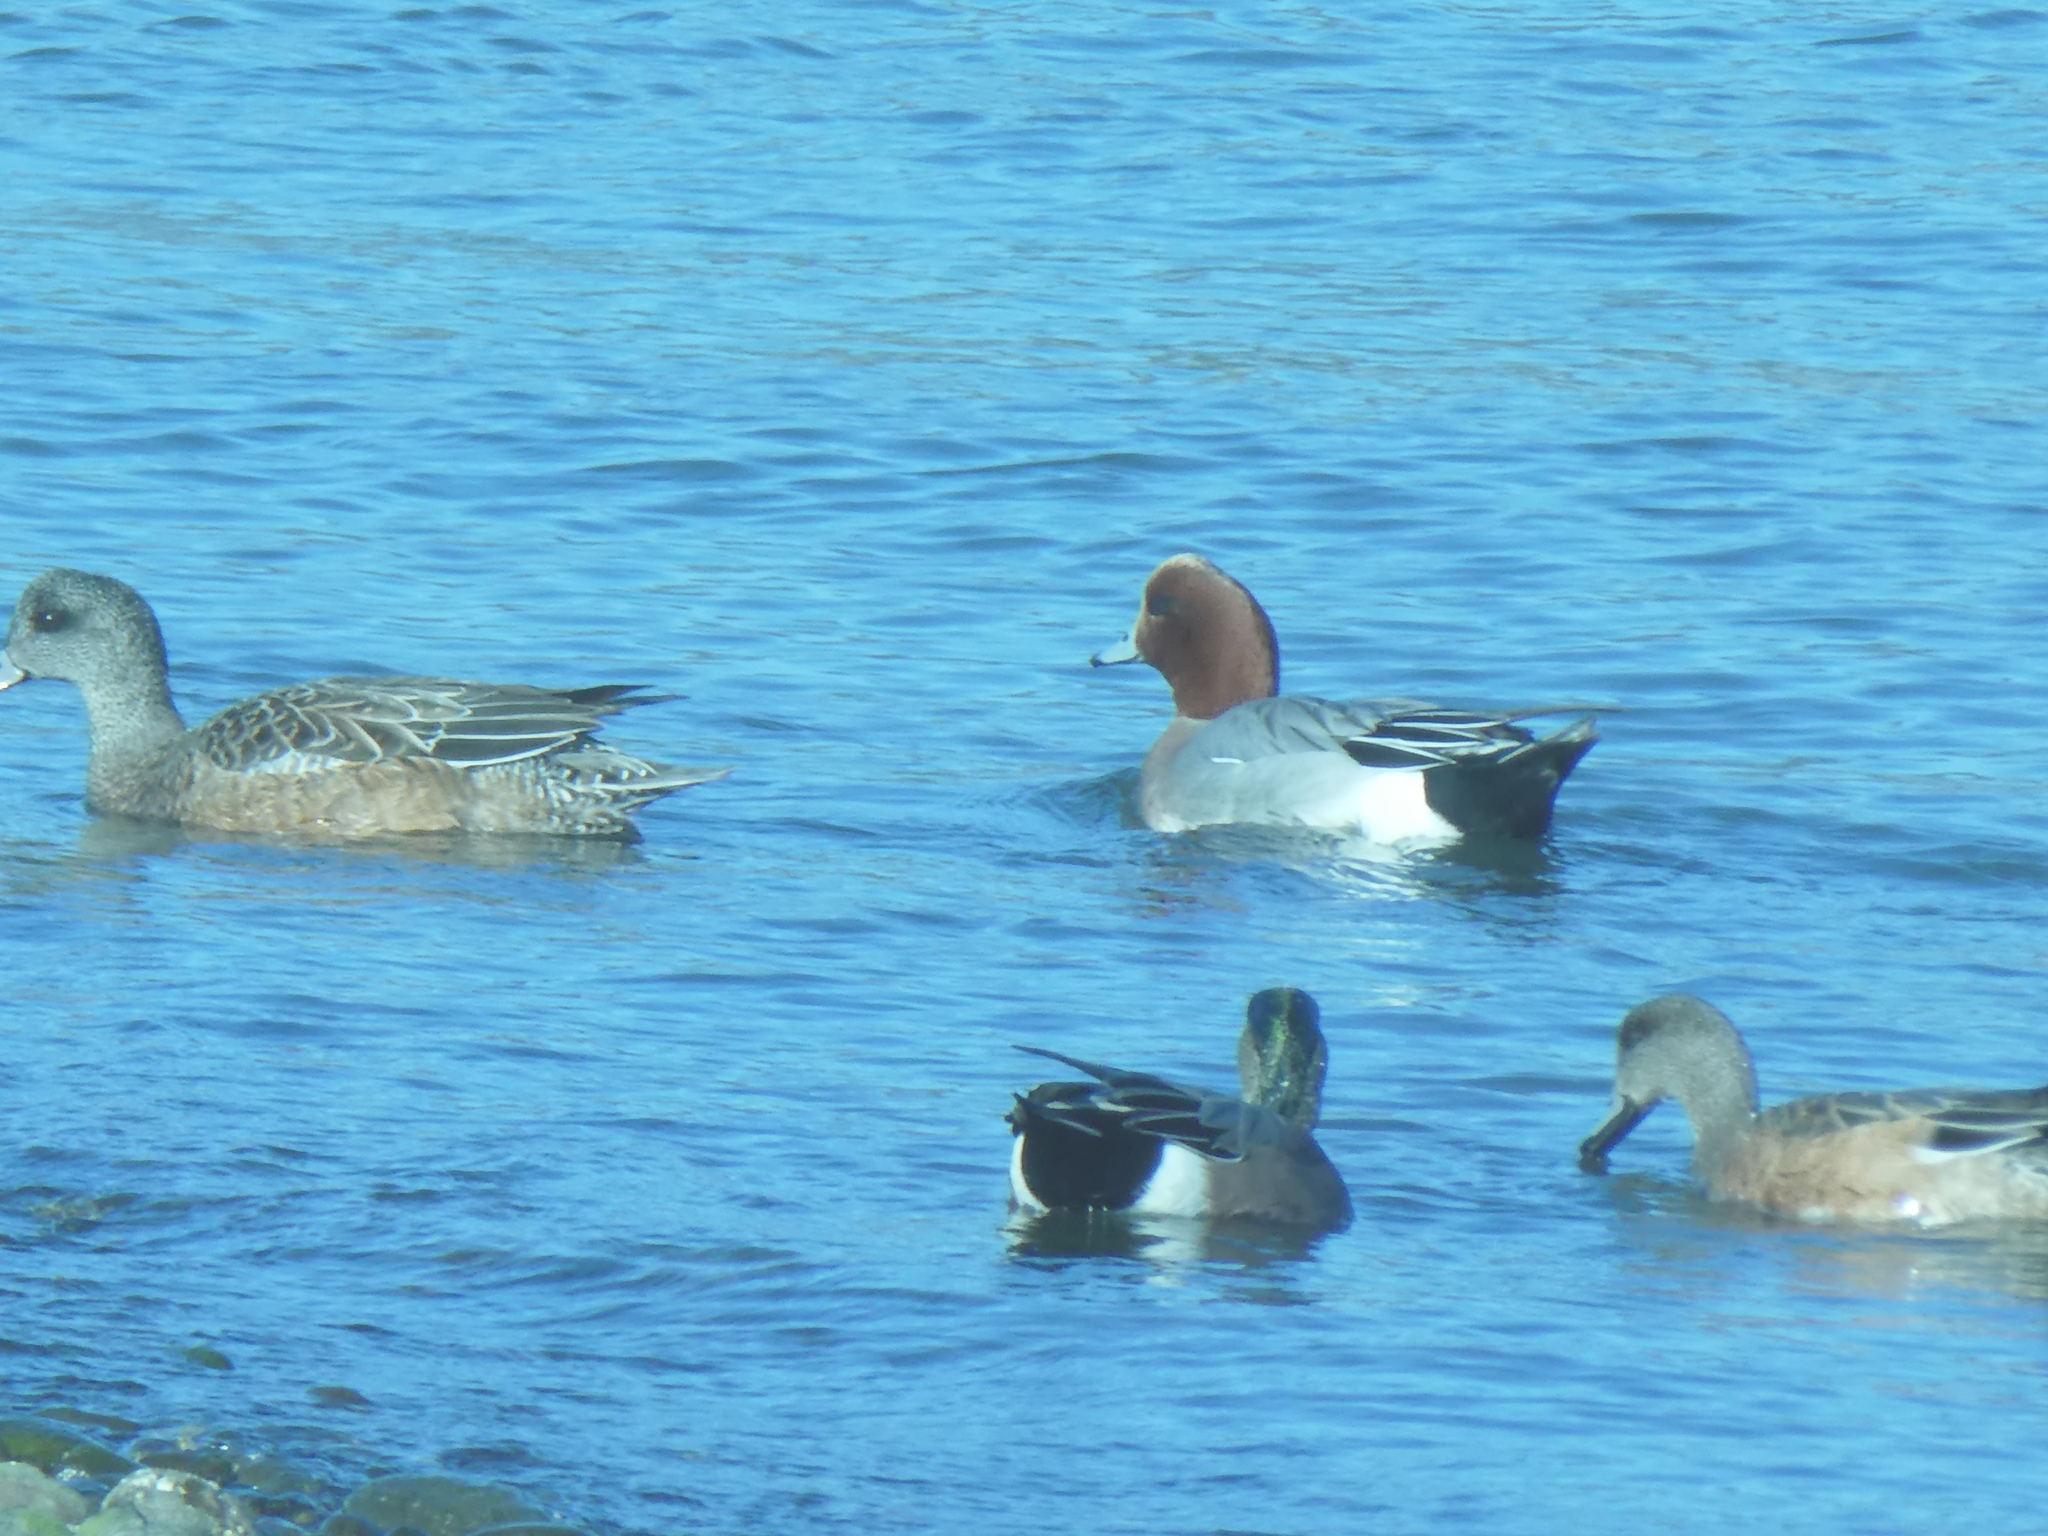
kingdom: Animalia
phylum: Chordata
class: Aves
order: Anseriformes
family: Anatidae
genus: Mareca
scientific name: Mareca penelope
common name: Eurasian wigeon
